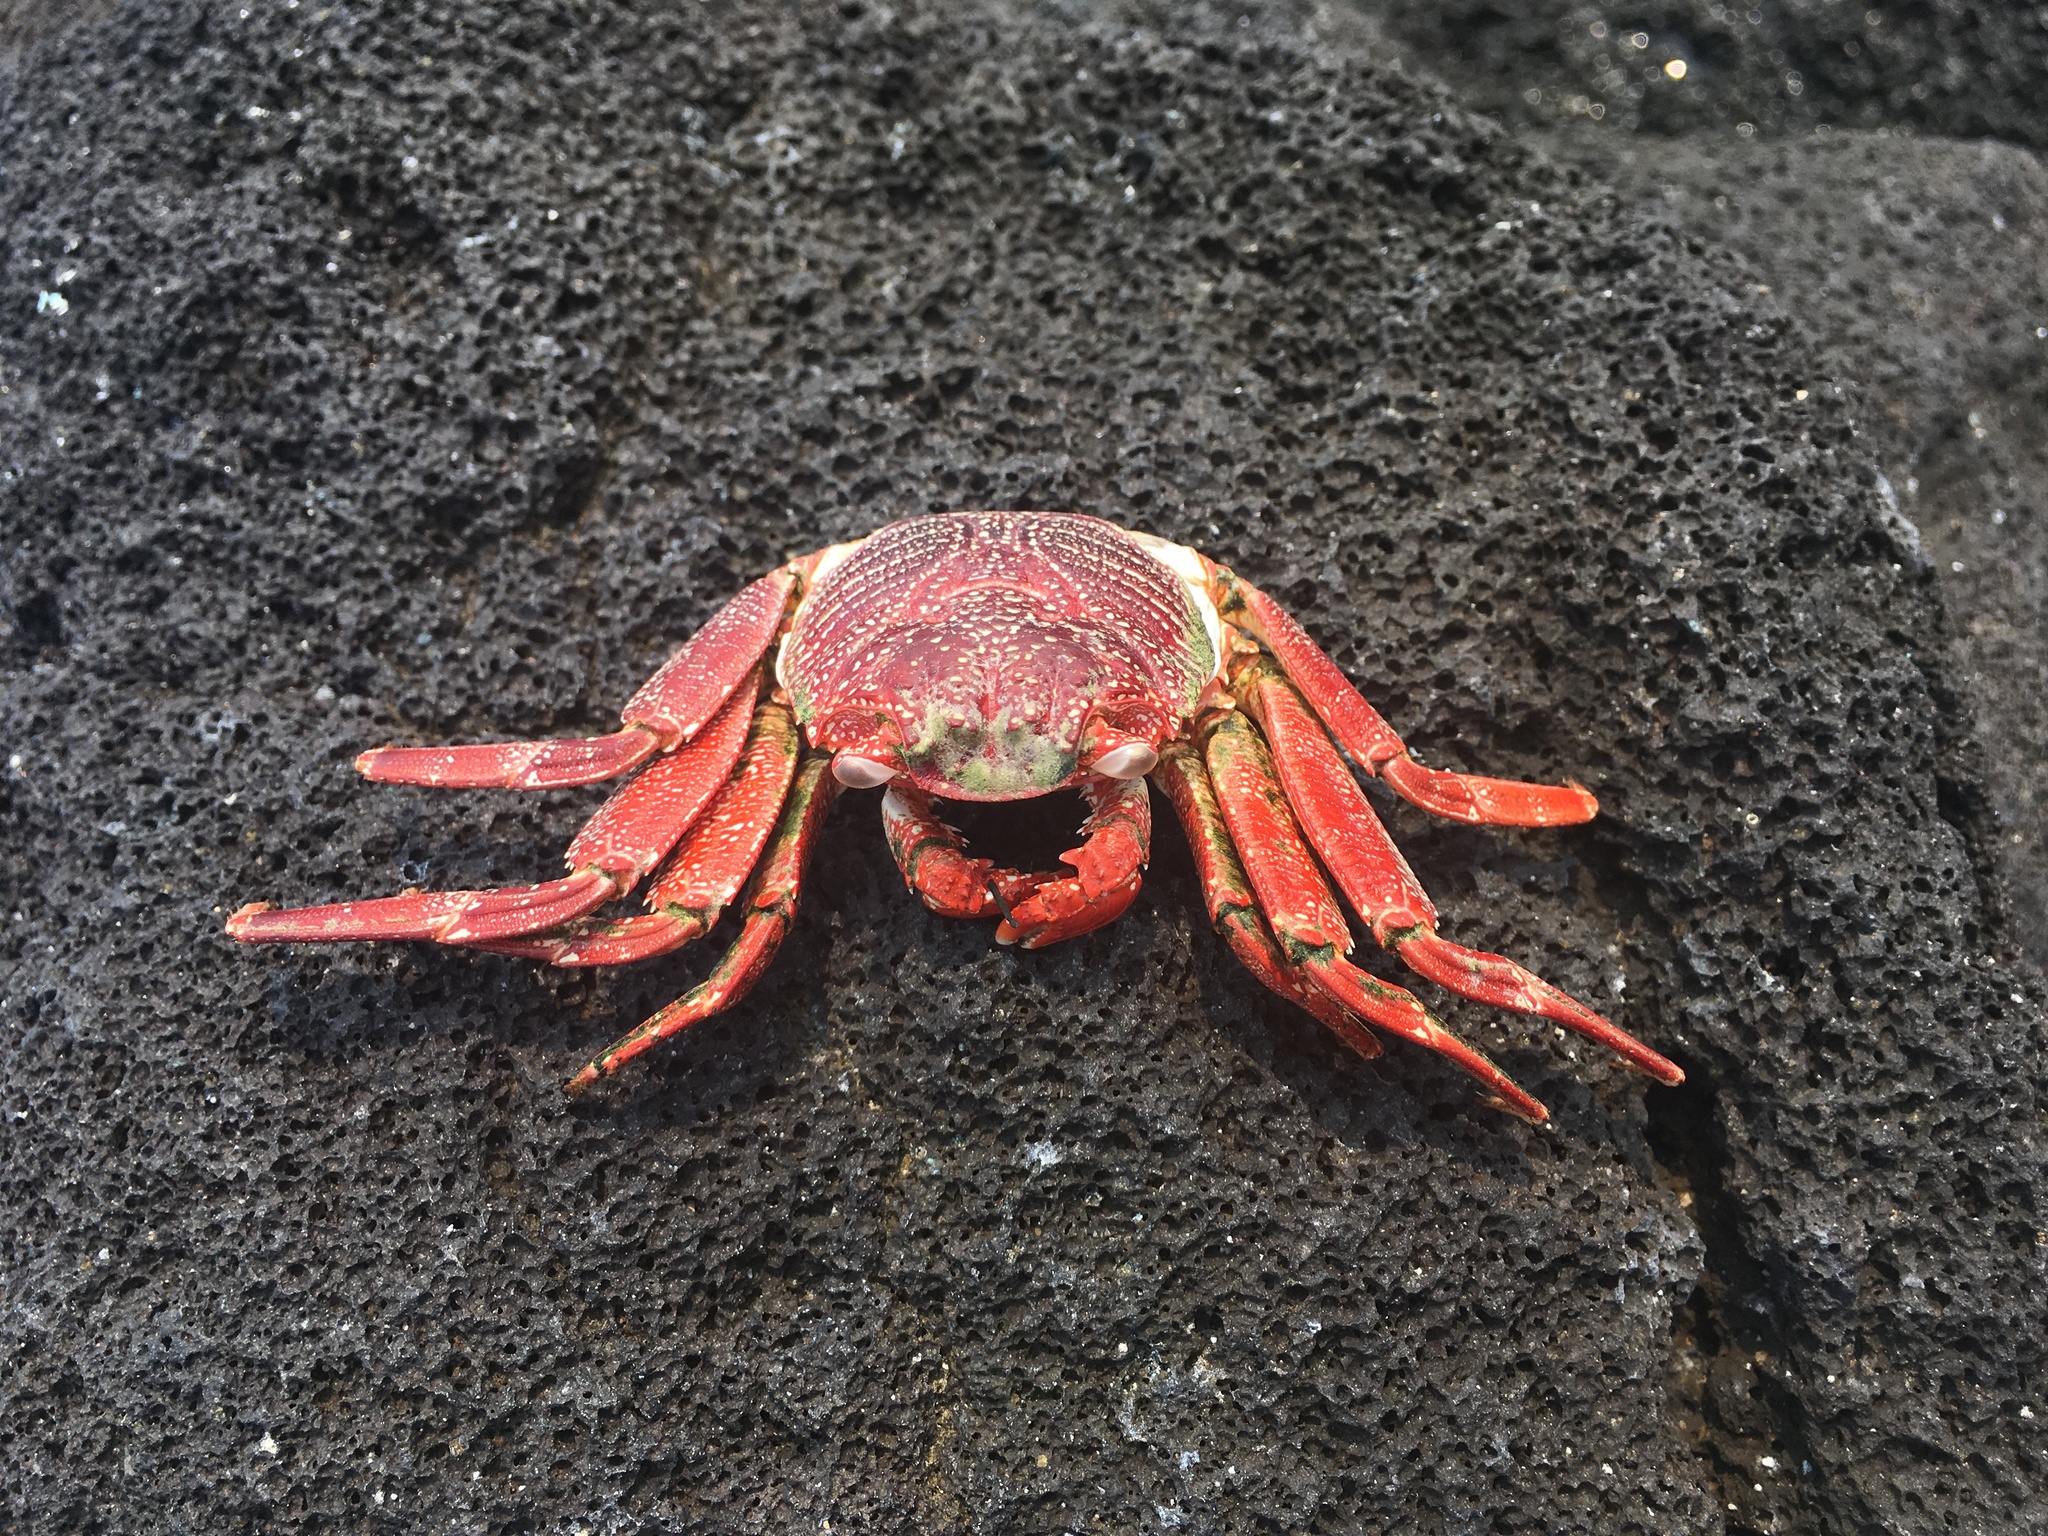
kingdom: Animalia
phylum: Arthropoda
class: Malacostraca
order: Decapoda
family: Grapsidae
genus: Grapsus
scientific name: Grapsus tenuicrustatus
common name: Natal lightfoot crab
